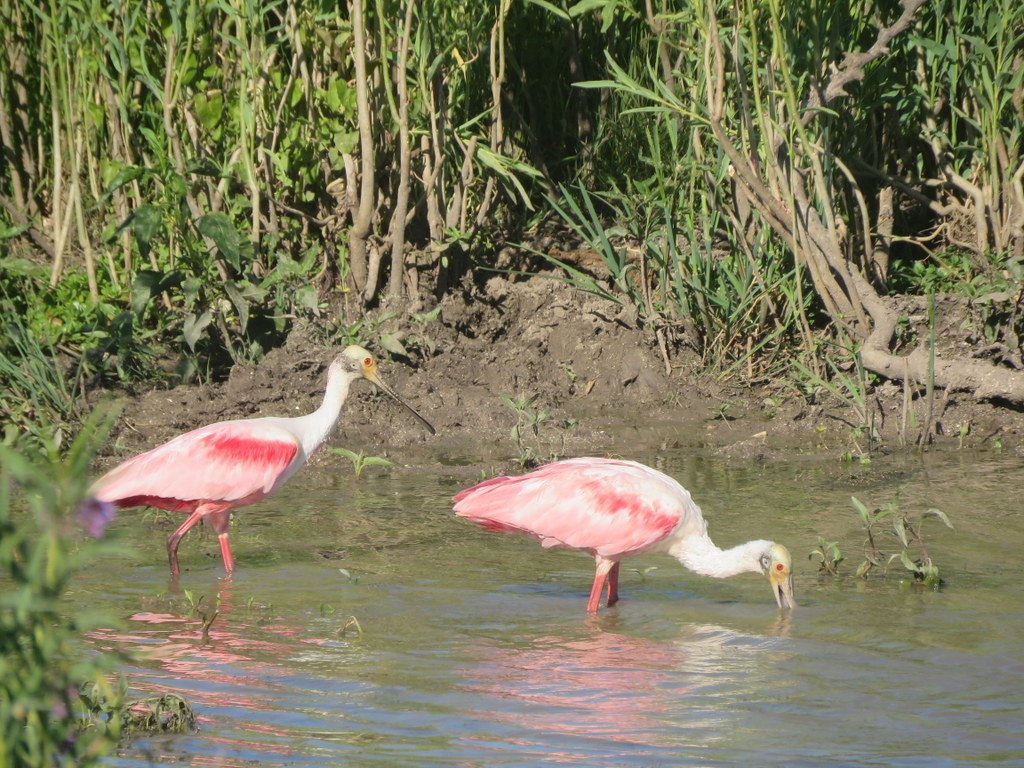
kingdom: Animalia
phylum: Chordata
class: Aves
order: Pelecaniformes
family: Threskiornithidae
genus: Platalea
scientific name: Platalea ajaja
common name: Roseate spoonbill
